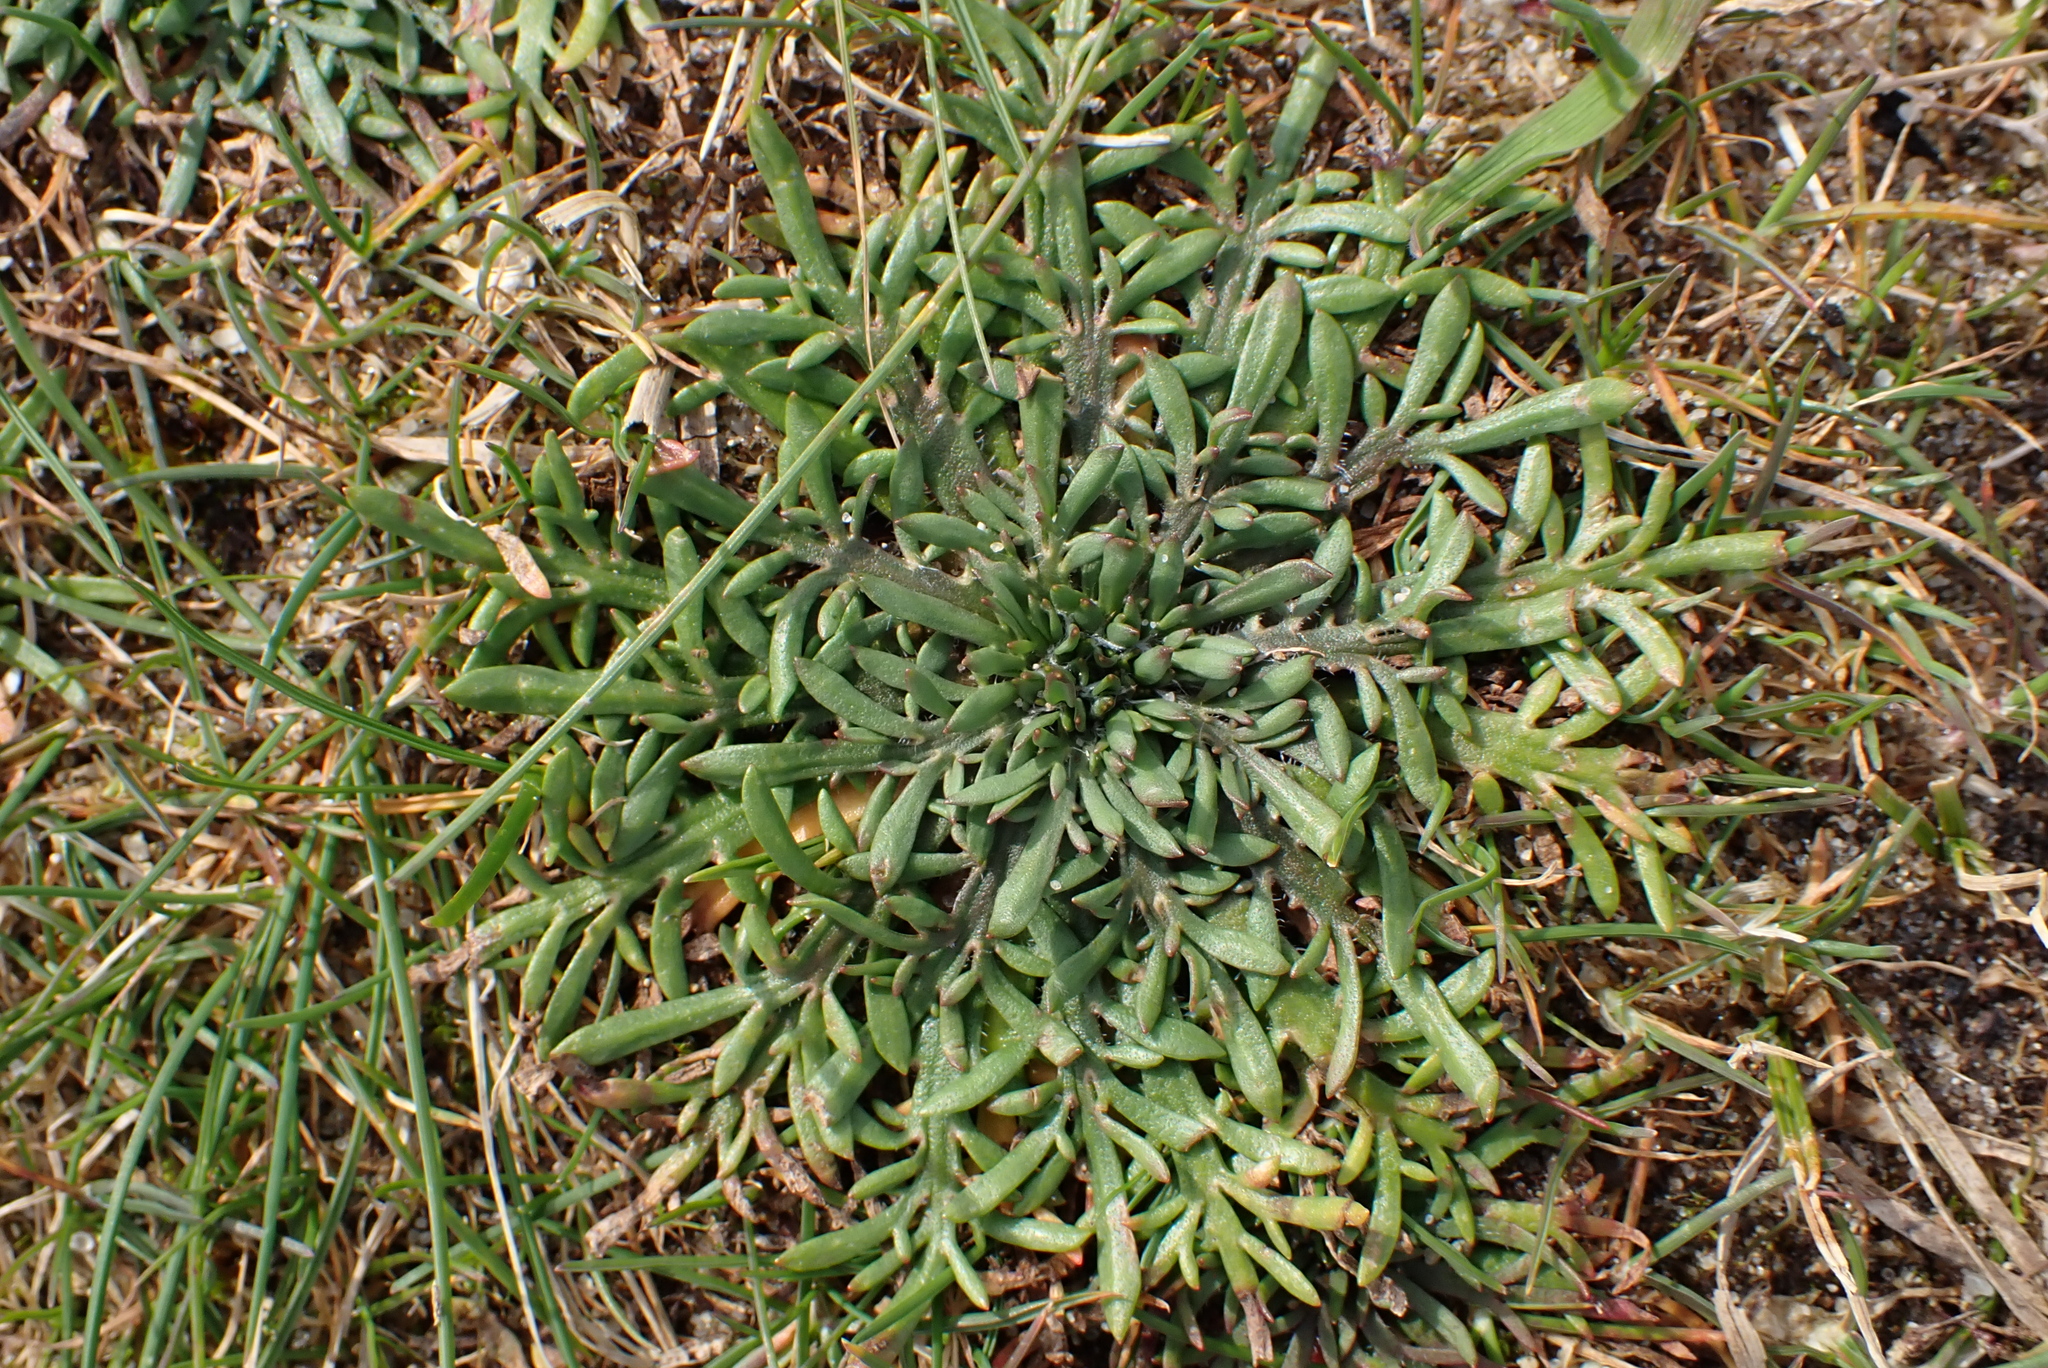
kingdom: Plantae
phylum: Tracheophyta
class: Magnoliopsida
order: Lamiales
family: Plantaginaceae
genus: Plantago
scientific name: Plantago coronopus
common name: Buck's-horn plantain
